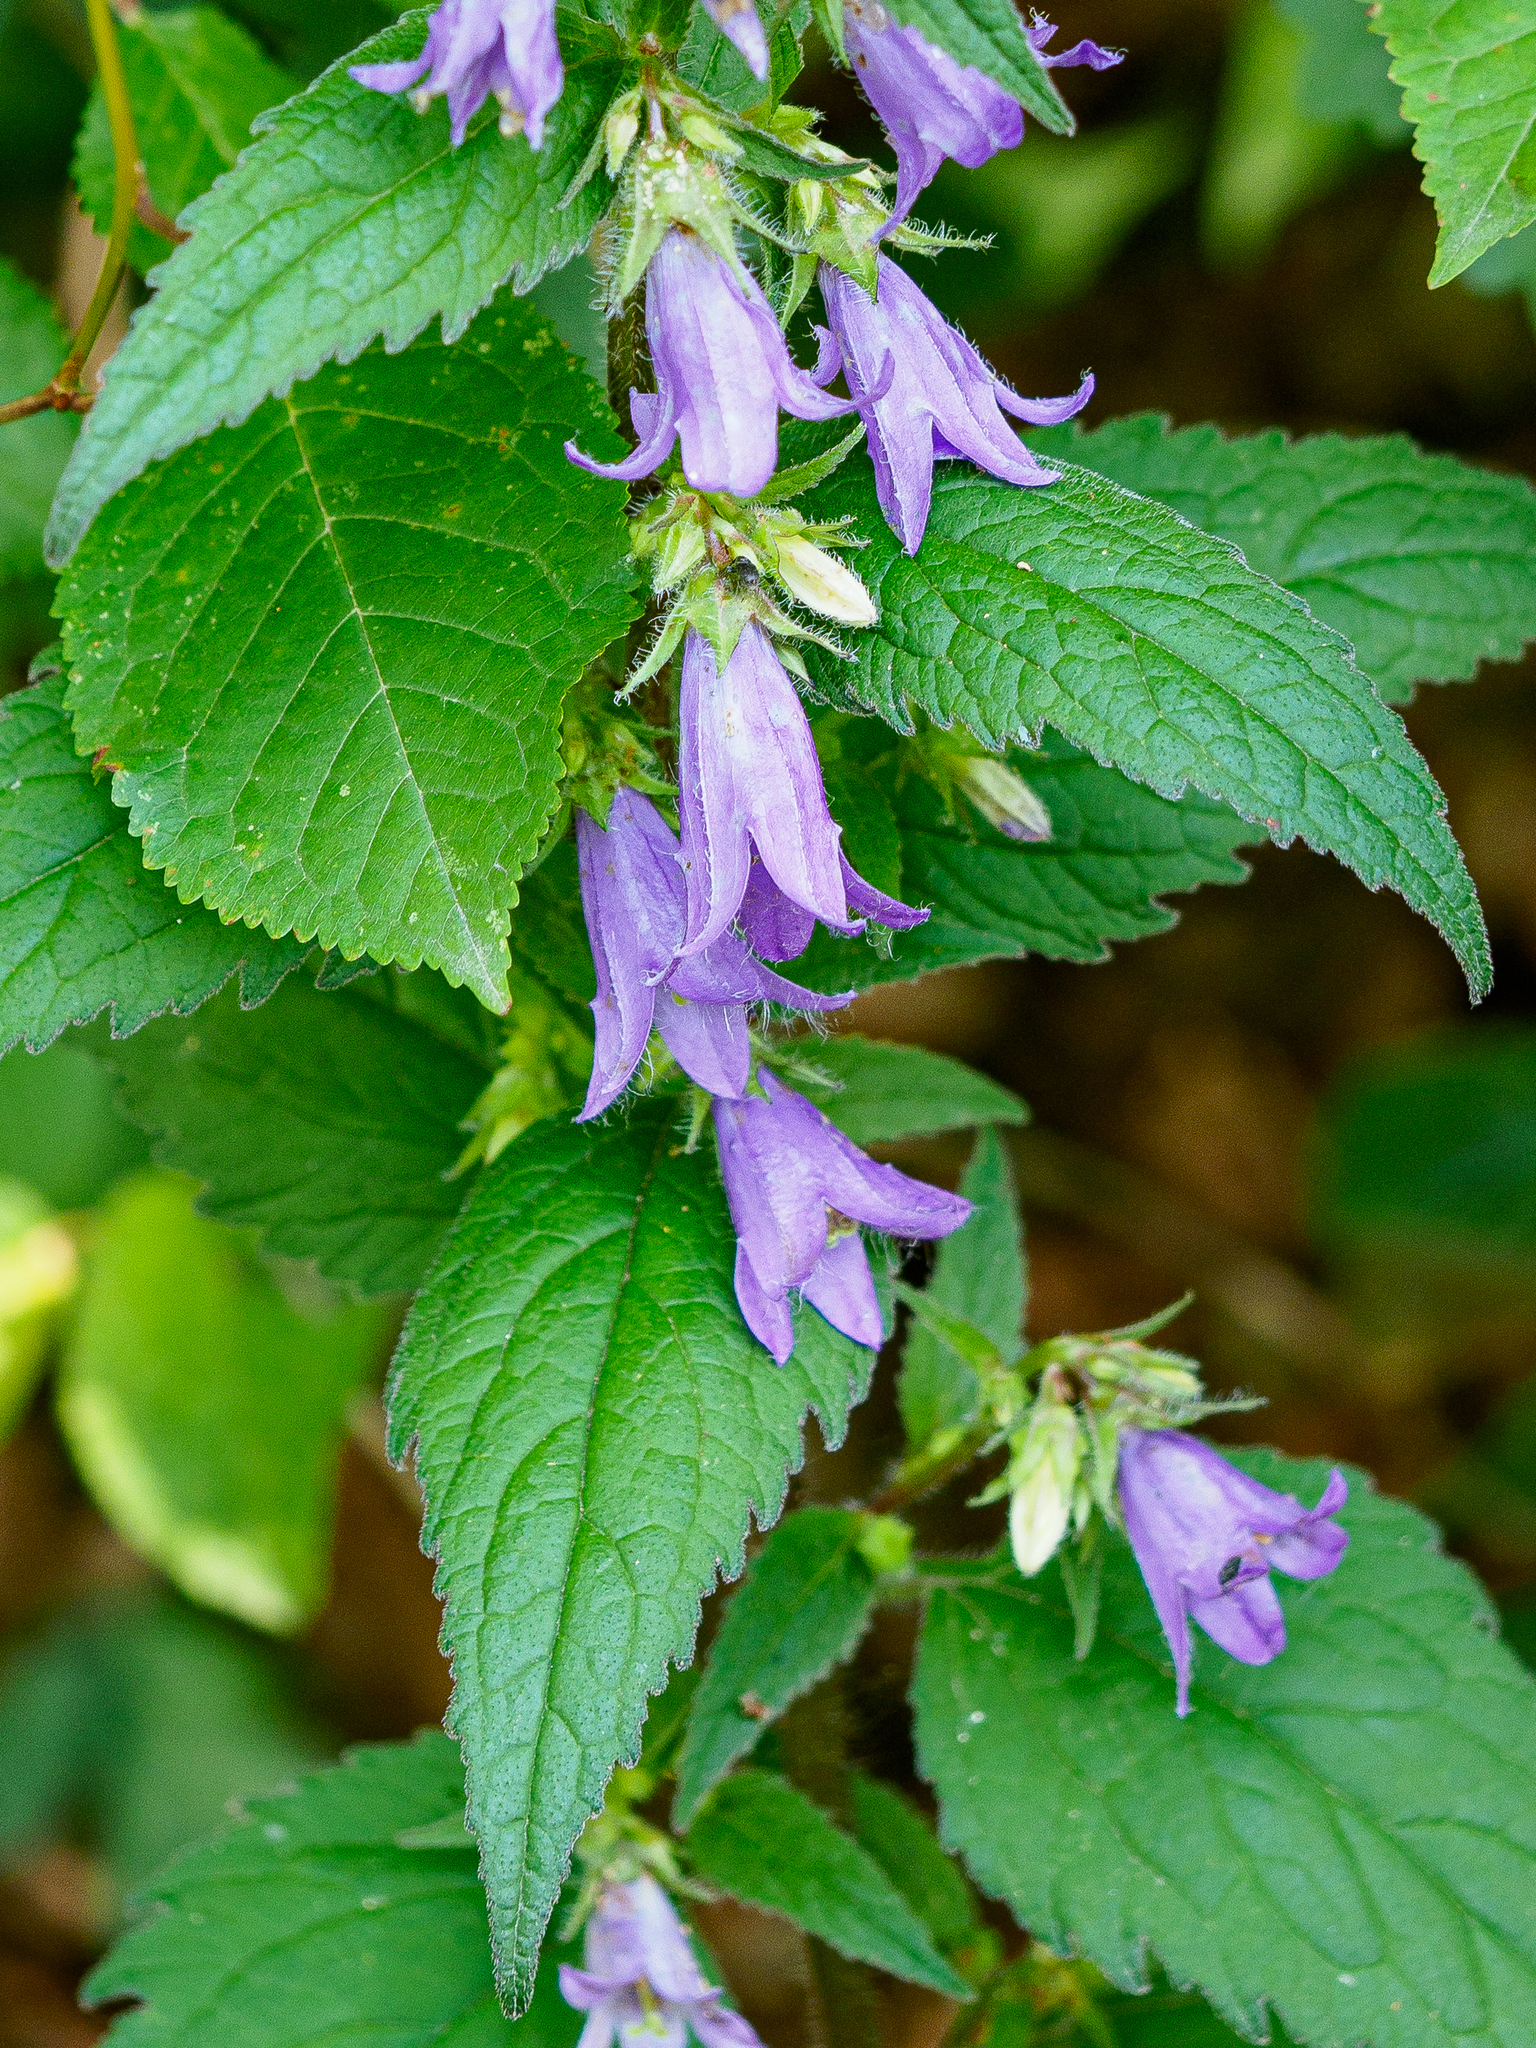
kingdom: Plantae
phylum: Tracheophyta
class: Magnoliopsida
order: Asterales
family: Campanulaceae
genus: Campanula
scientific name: Campanula trachelium
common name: Nettle-leaved bellflower
